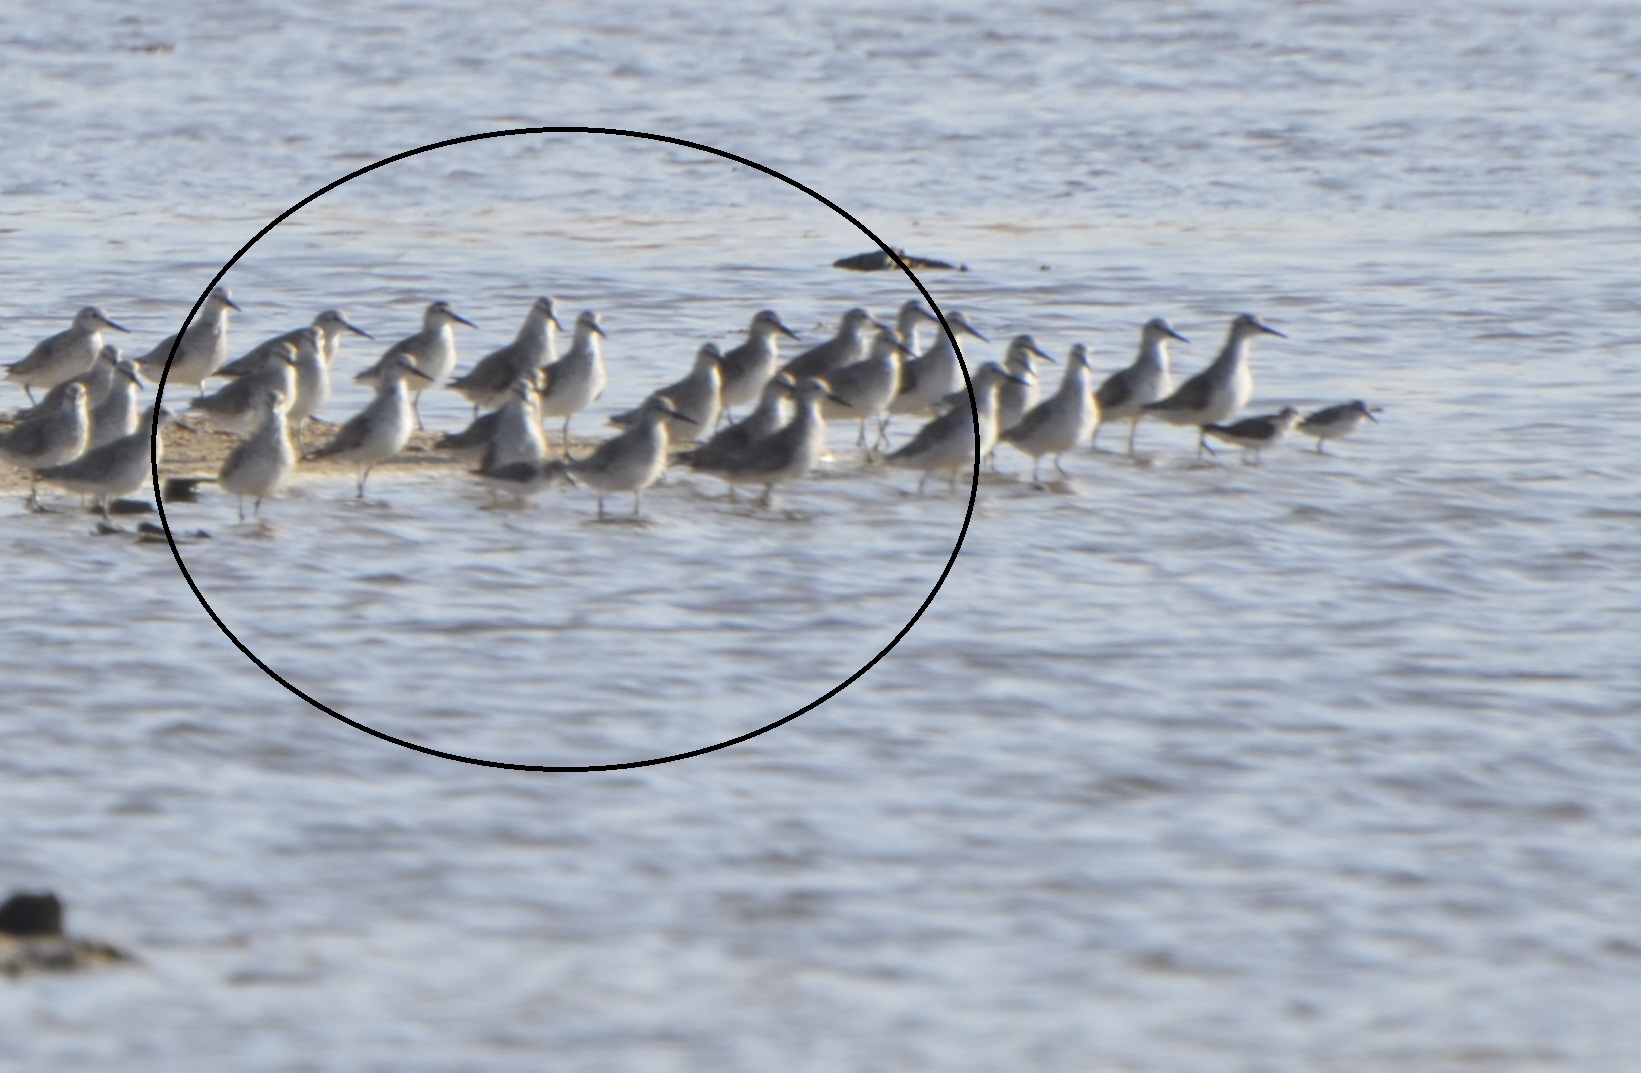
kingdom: Animalia
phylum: Chordata
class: Aves
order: Charadriiformes
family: Scolopacidae
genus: Calidris
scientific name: Calidris canutus
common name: Red knot
